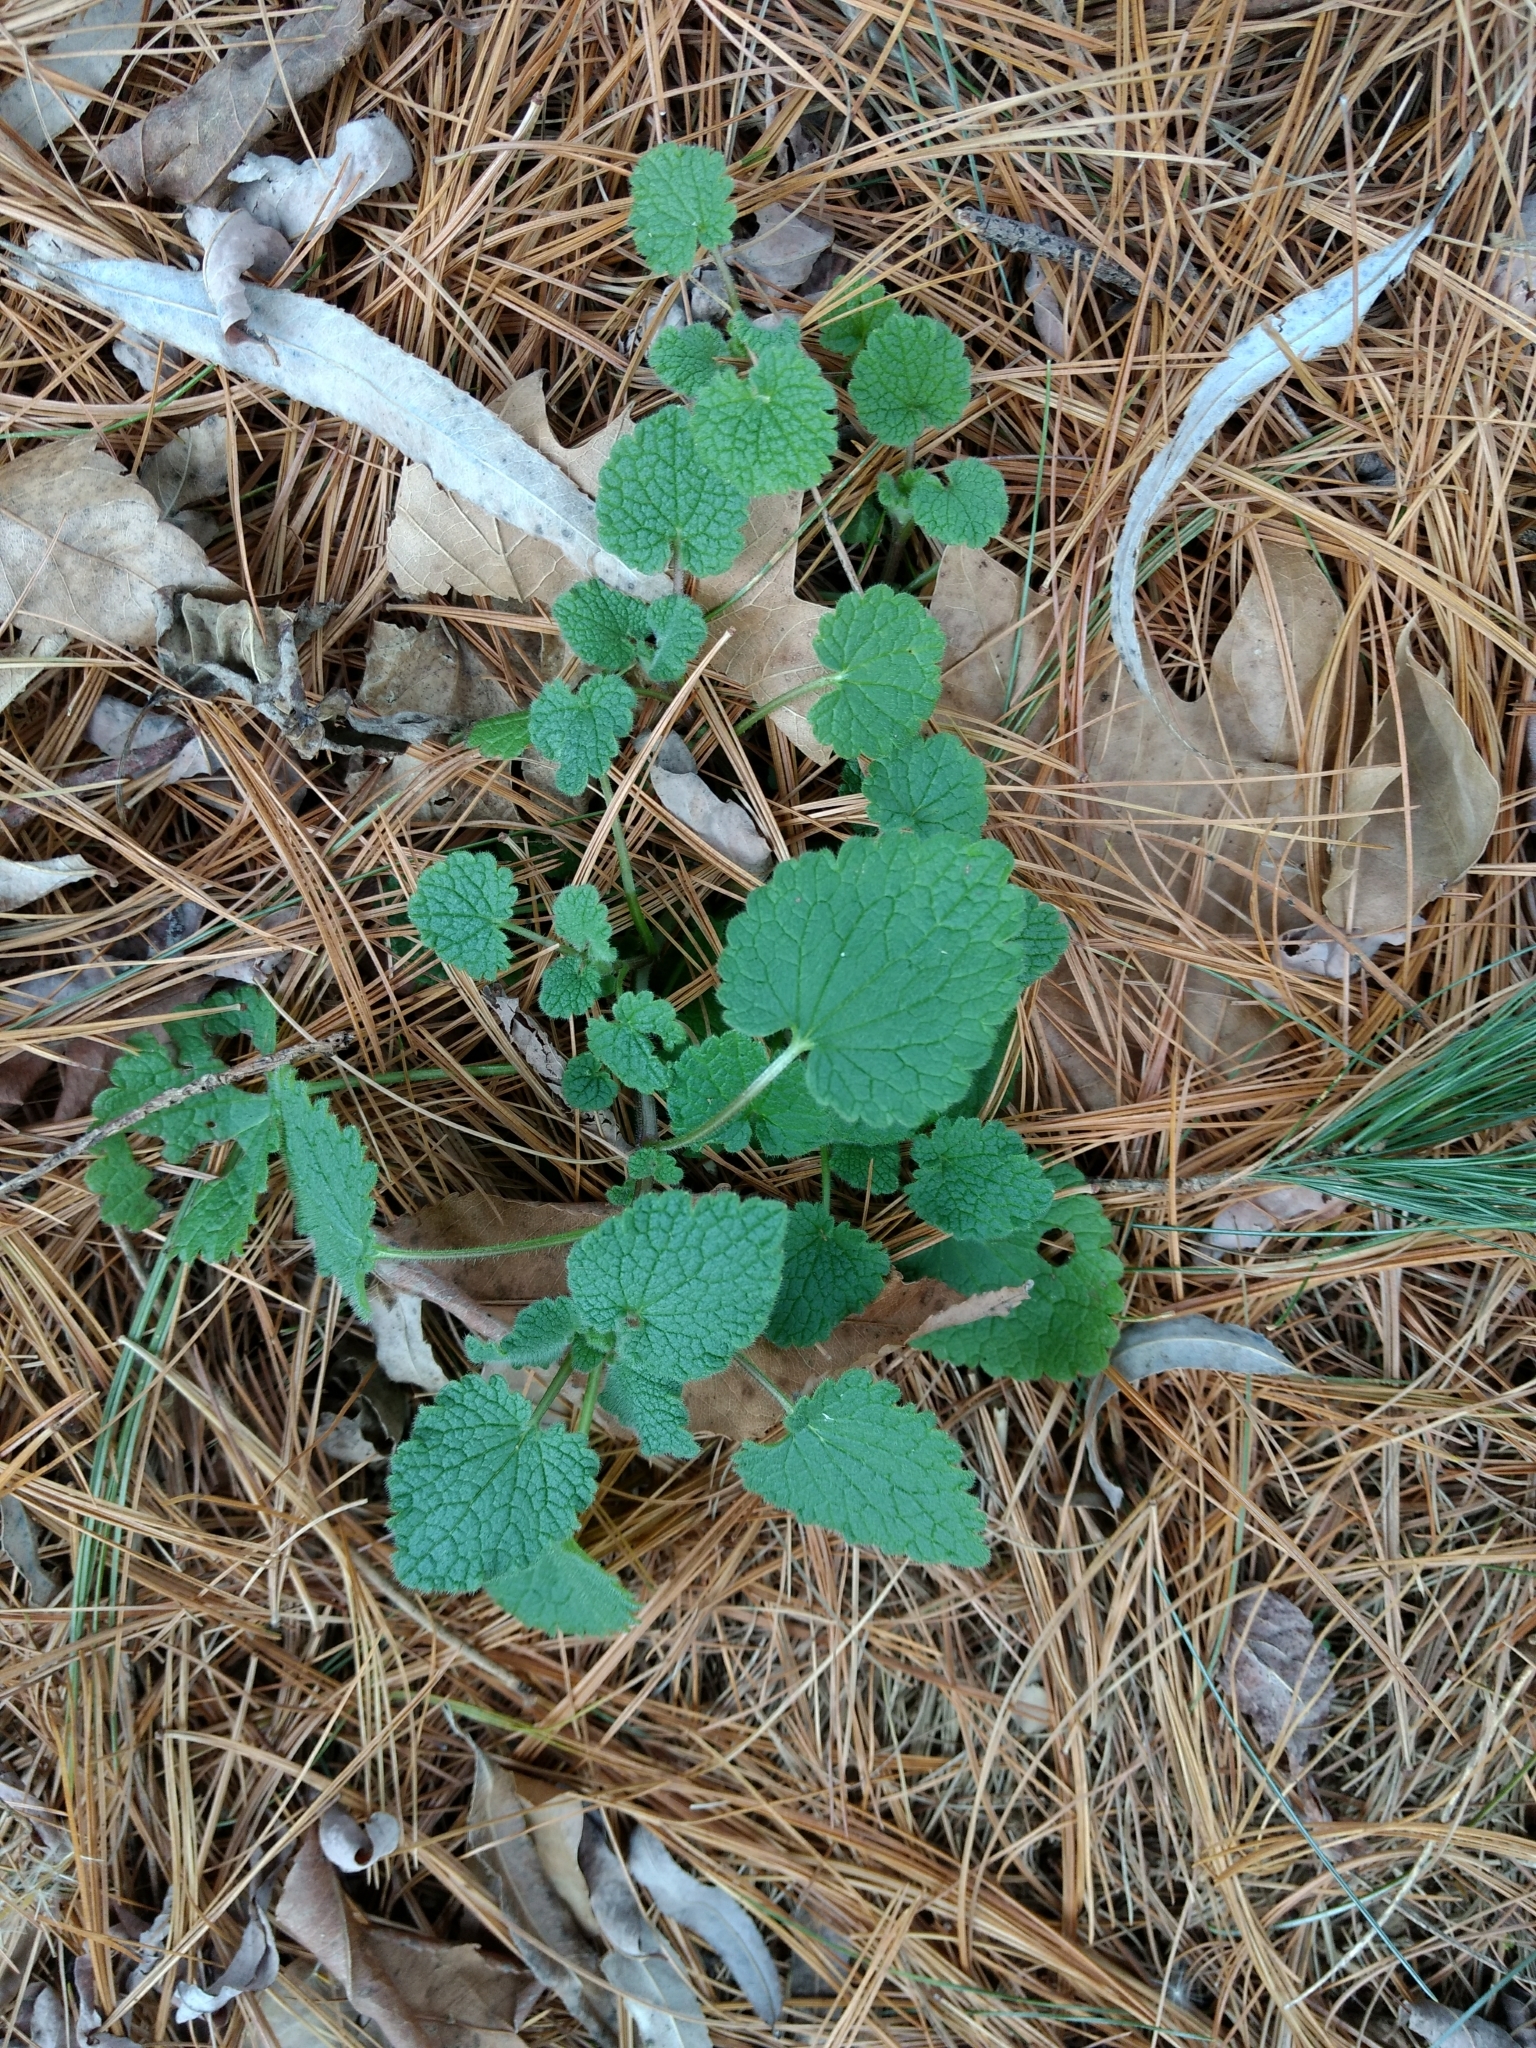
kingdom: Plantae
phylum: Tracheophyta
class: Magnoliopsida
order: Lamiales
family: Lamiaceae
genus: Lamium
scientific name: Lamium purpureum
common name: Red dead-nettle
